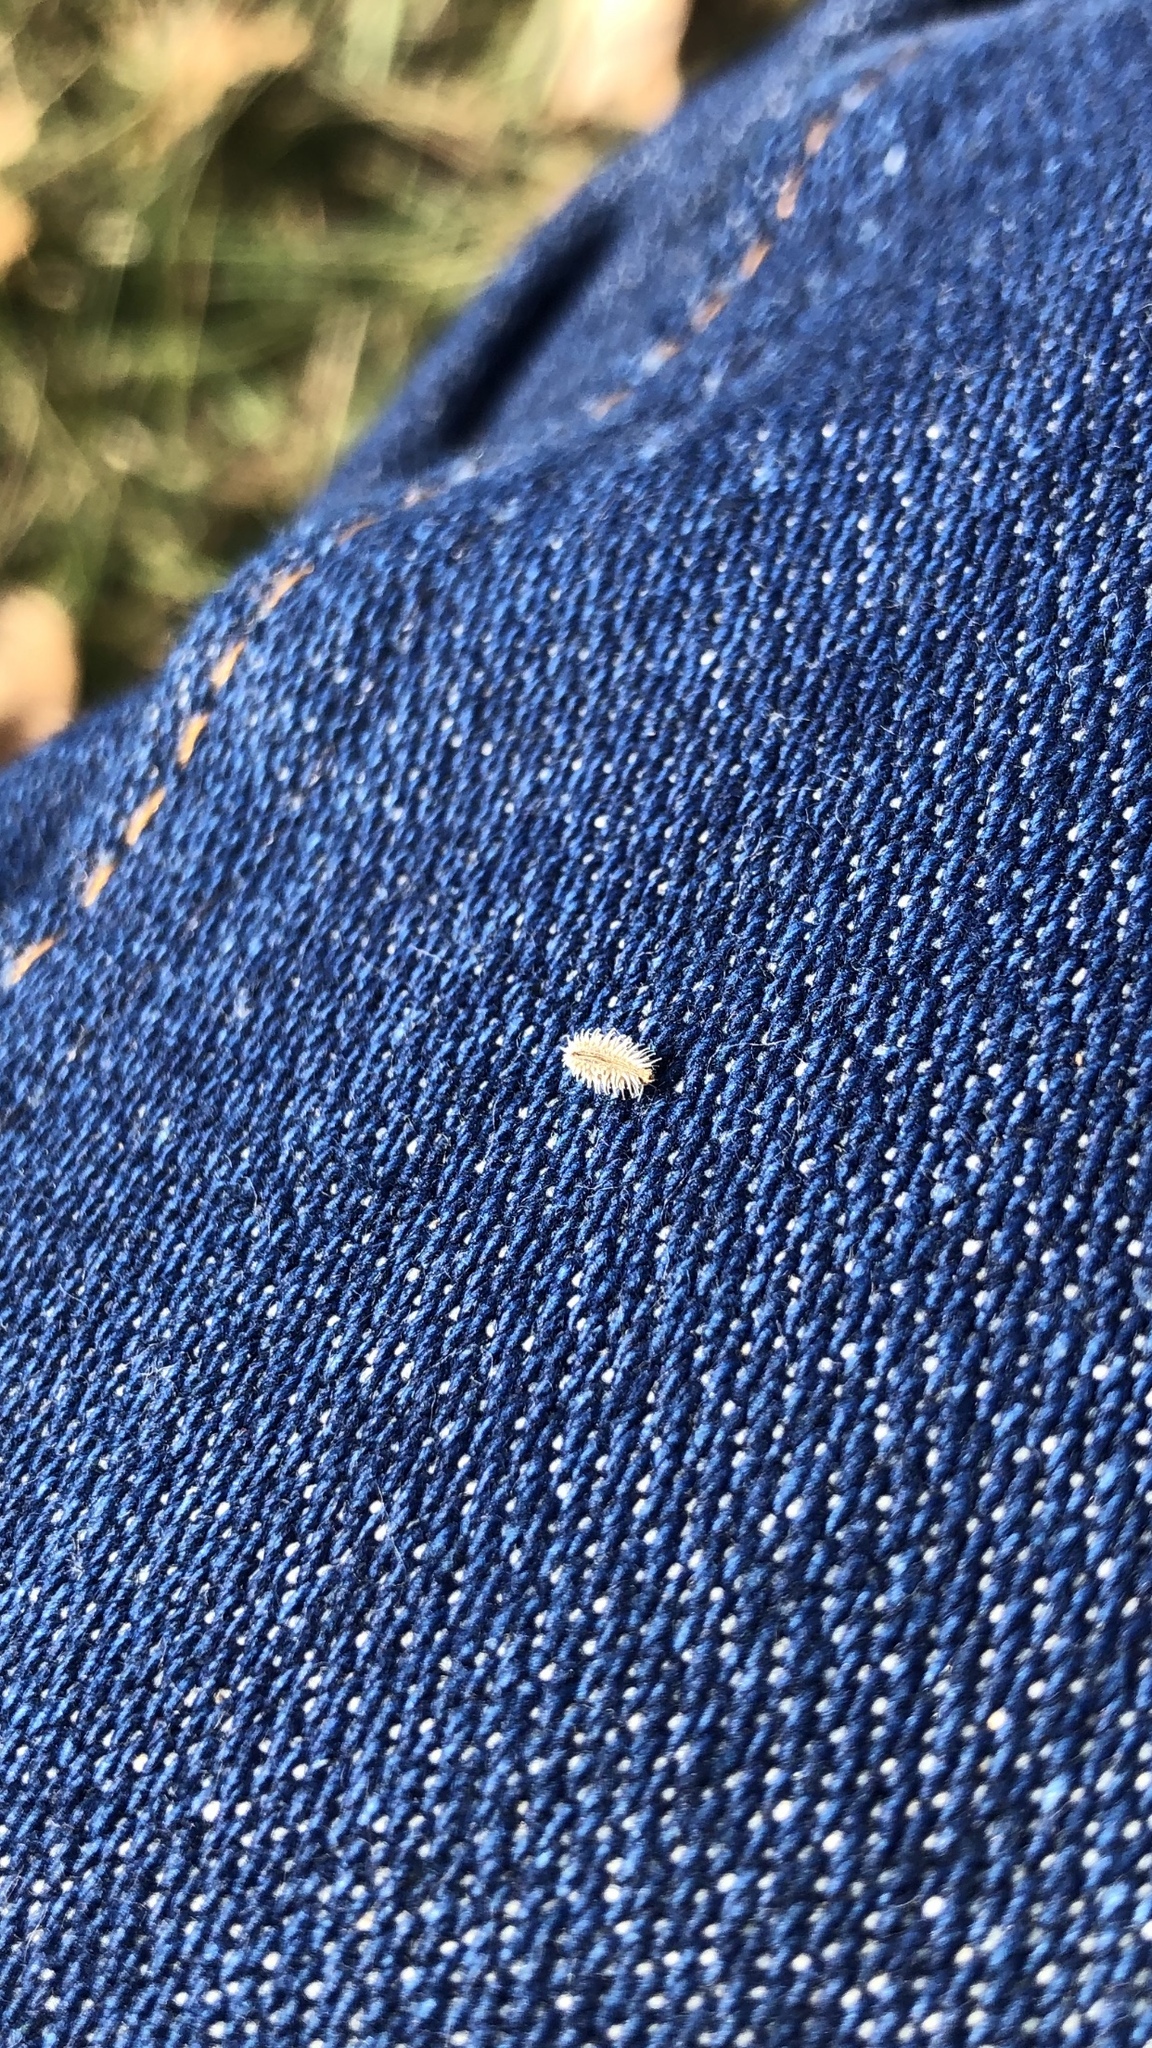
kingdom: Plantae
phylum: Tracheophyta
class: Magnoliopsida
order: Apiales
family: Apiaceae
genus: Torilis
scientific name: Torilis arvensis
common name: Spreading hedge-parsley
